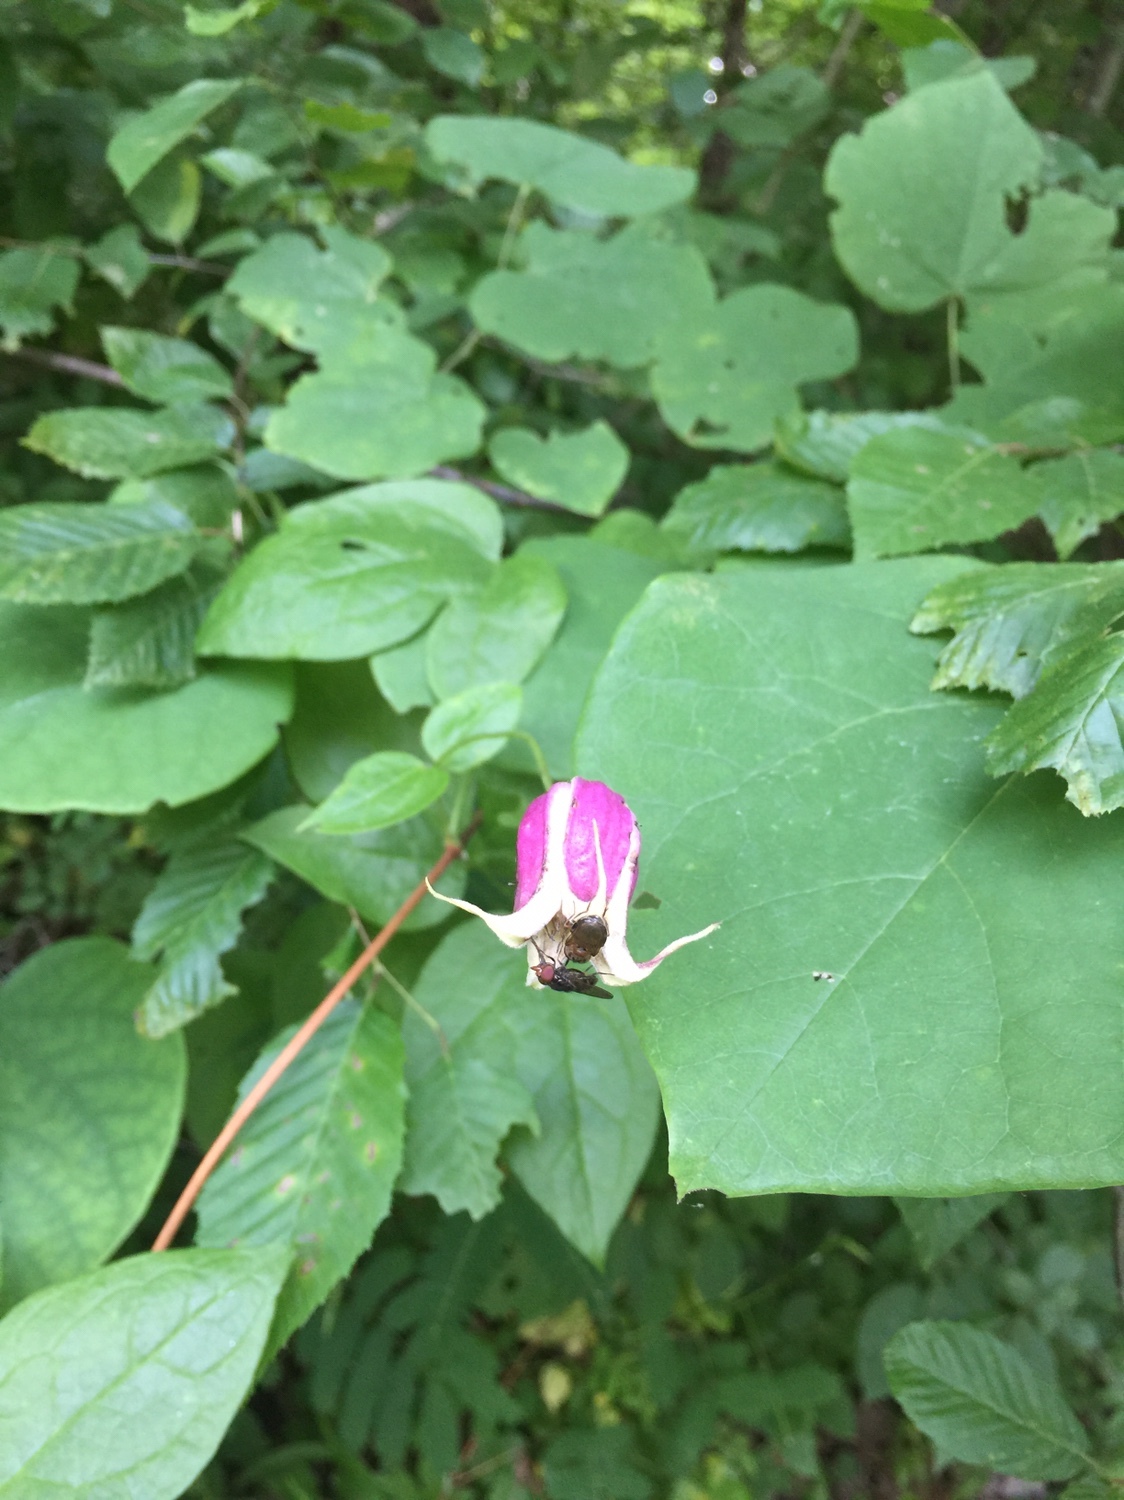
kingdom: Plantae
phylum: Tracheophyta
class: Magnoliopsida
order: Ranunculales
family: Ranunculaceae
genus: Clematis
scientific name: Clematis viorna
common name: Leather-flower
